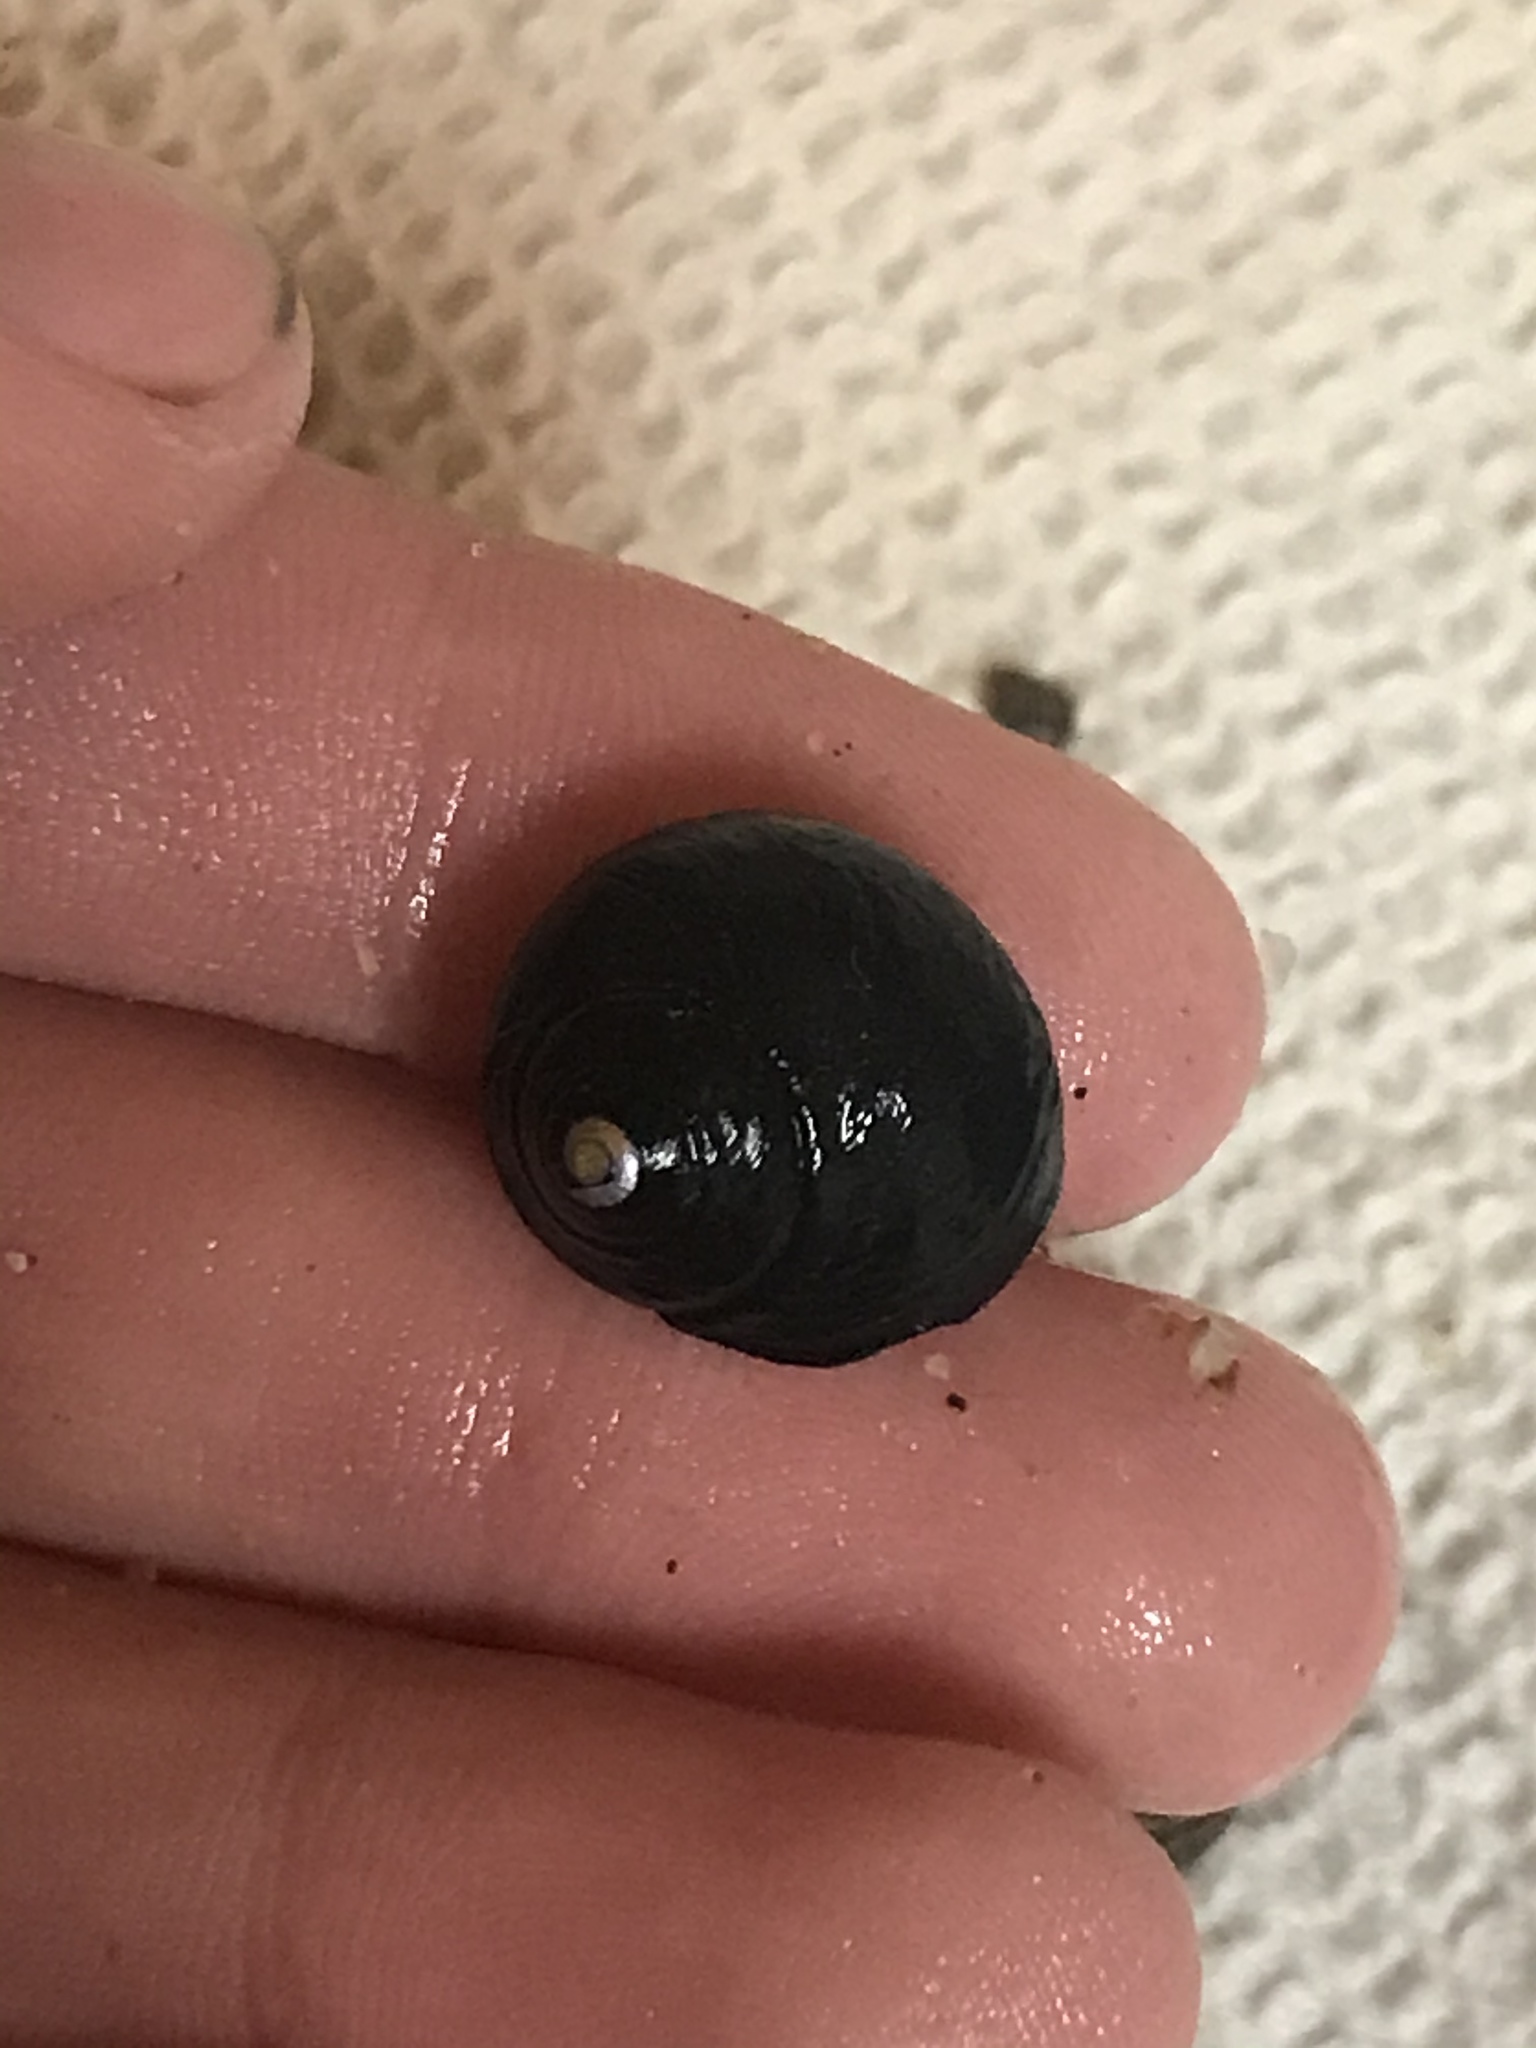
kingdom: Animalia
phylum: Mollusca
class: Gastropoda
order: Trochida
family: Tegulidae
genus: Tegula
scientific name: Tegula funebralis
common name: Black tegula
